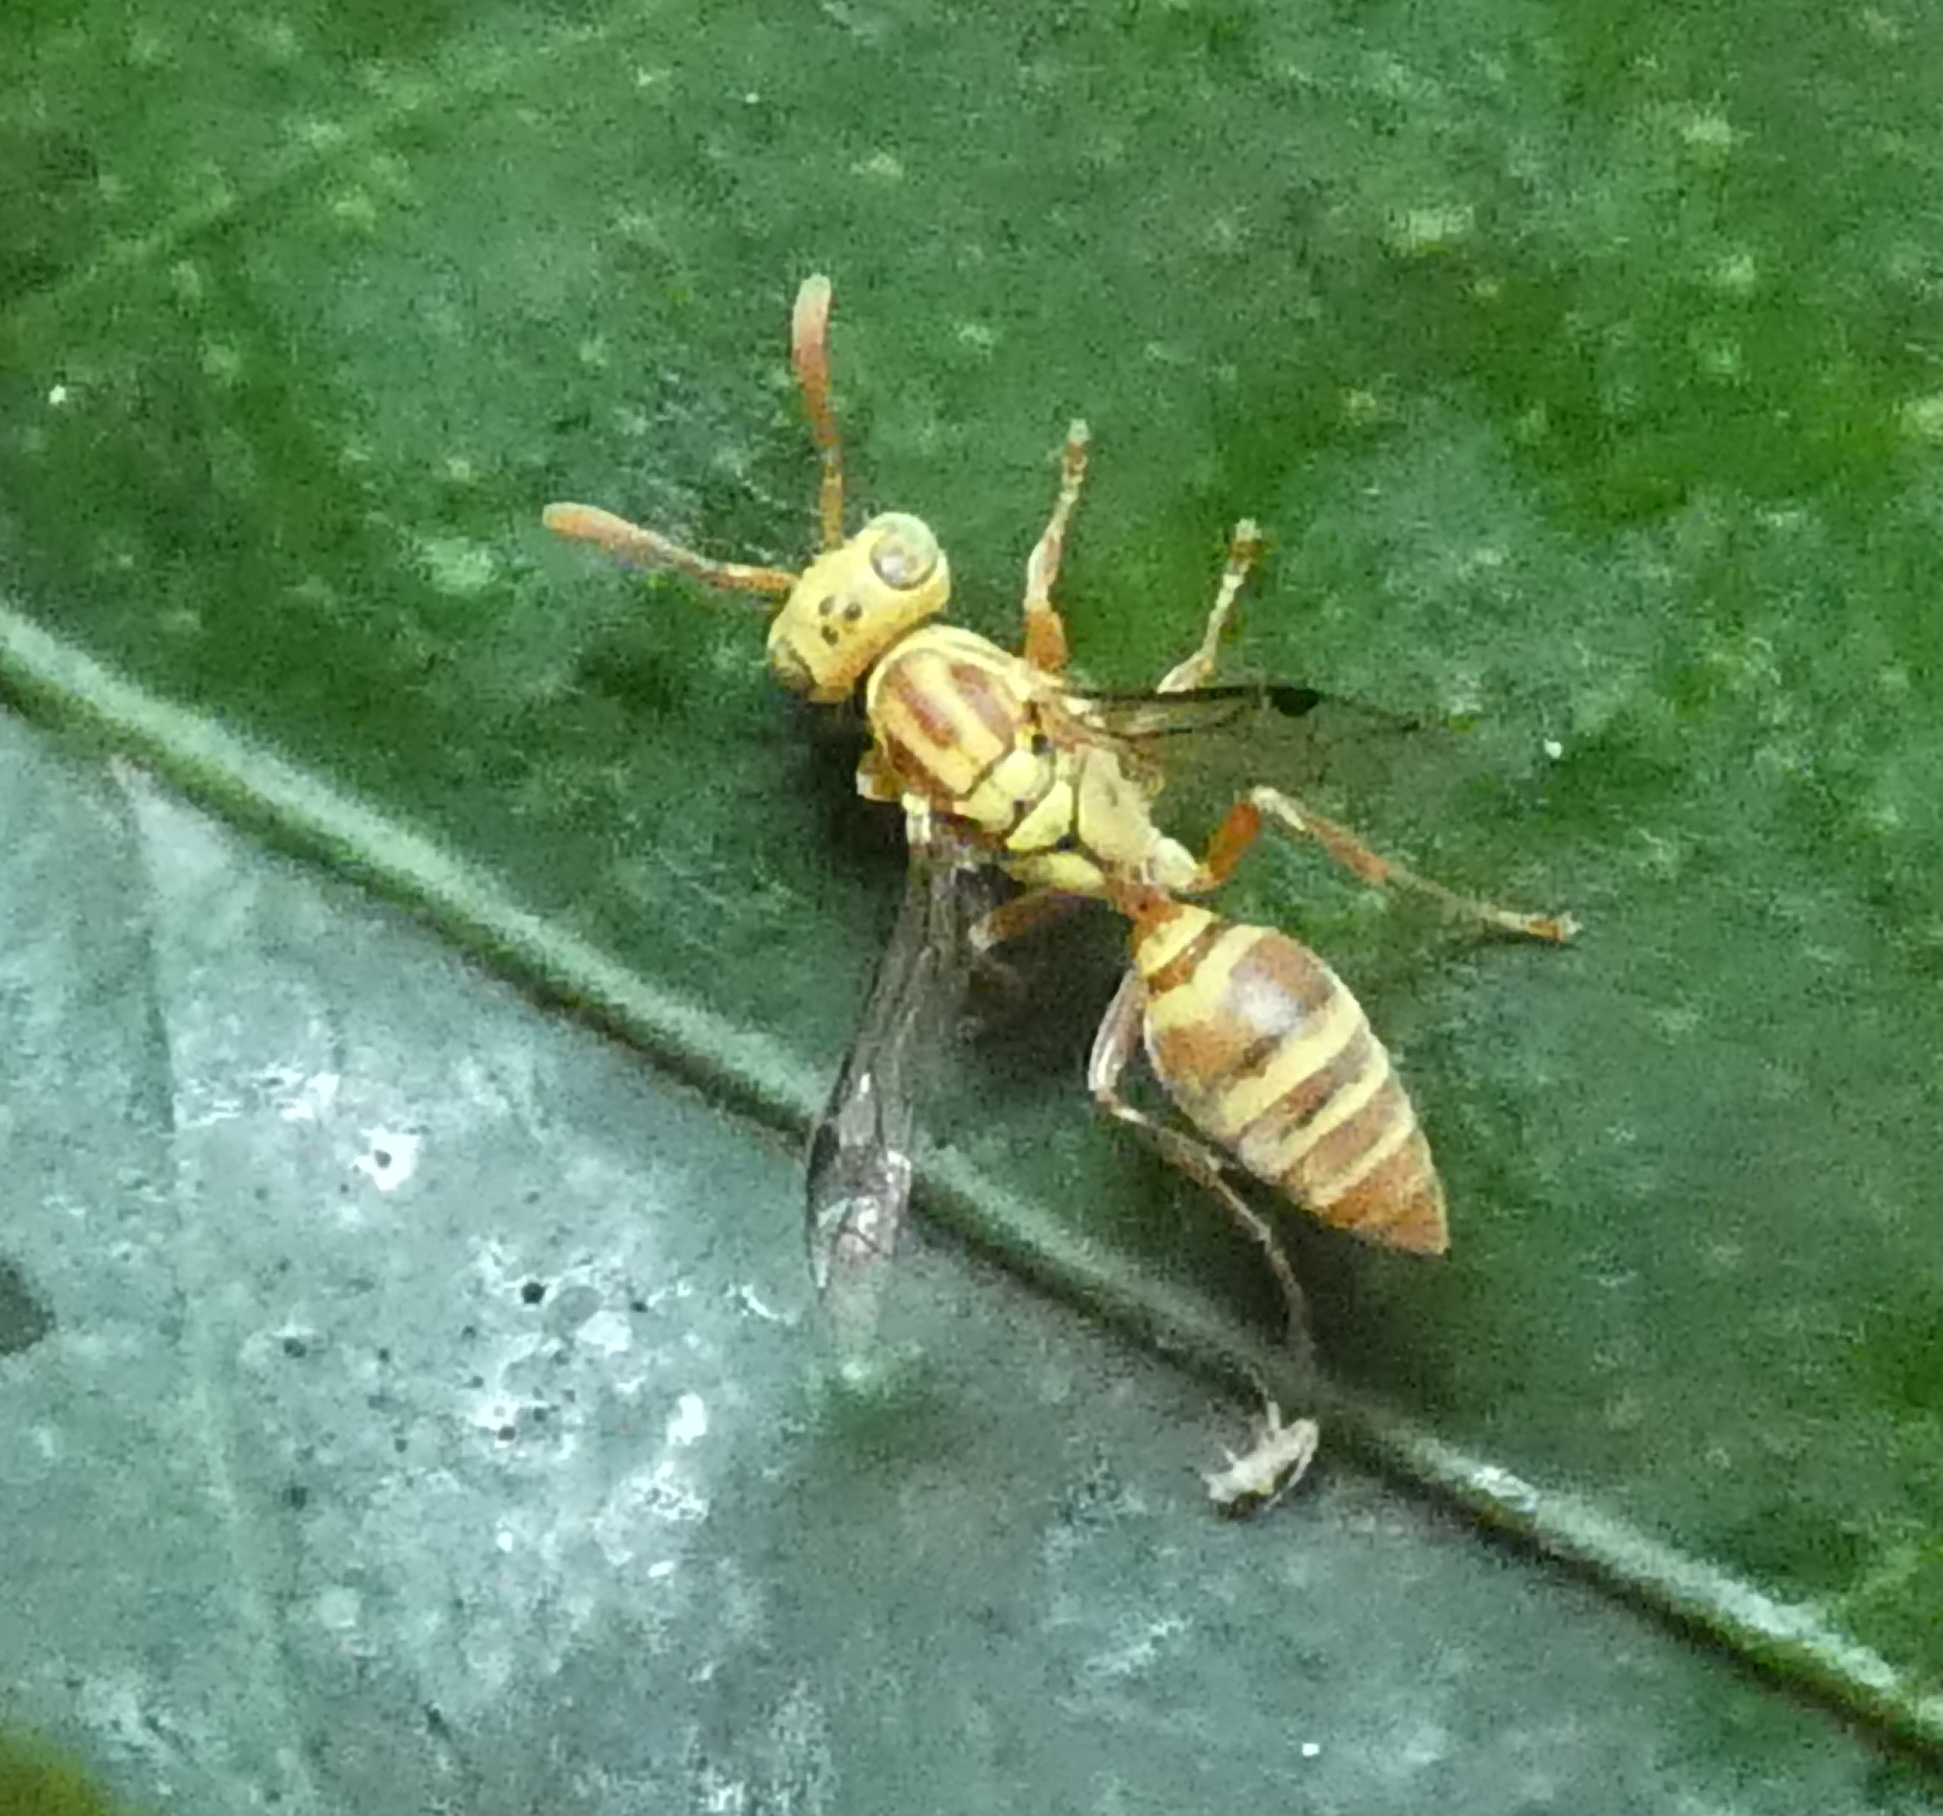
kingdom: Animalia
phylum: Arthropoda
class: Insecta
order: Hymenoptera
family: Vespidae
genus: Protopolybia
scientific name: Protopolybia potiguara
